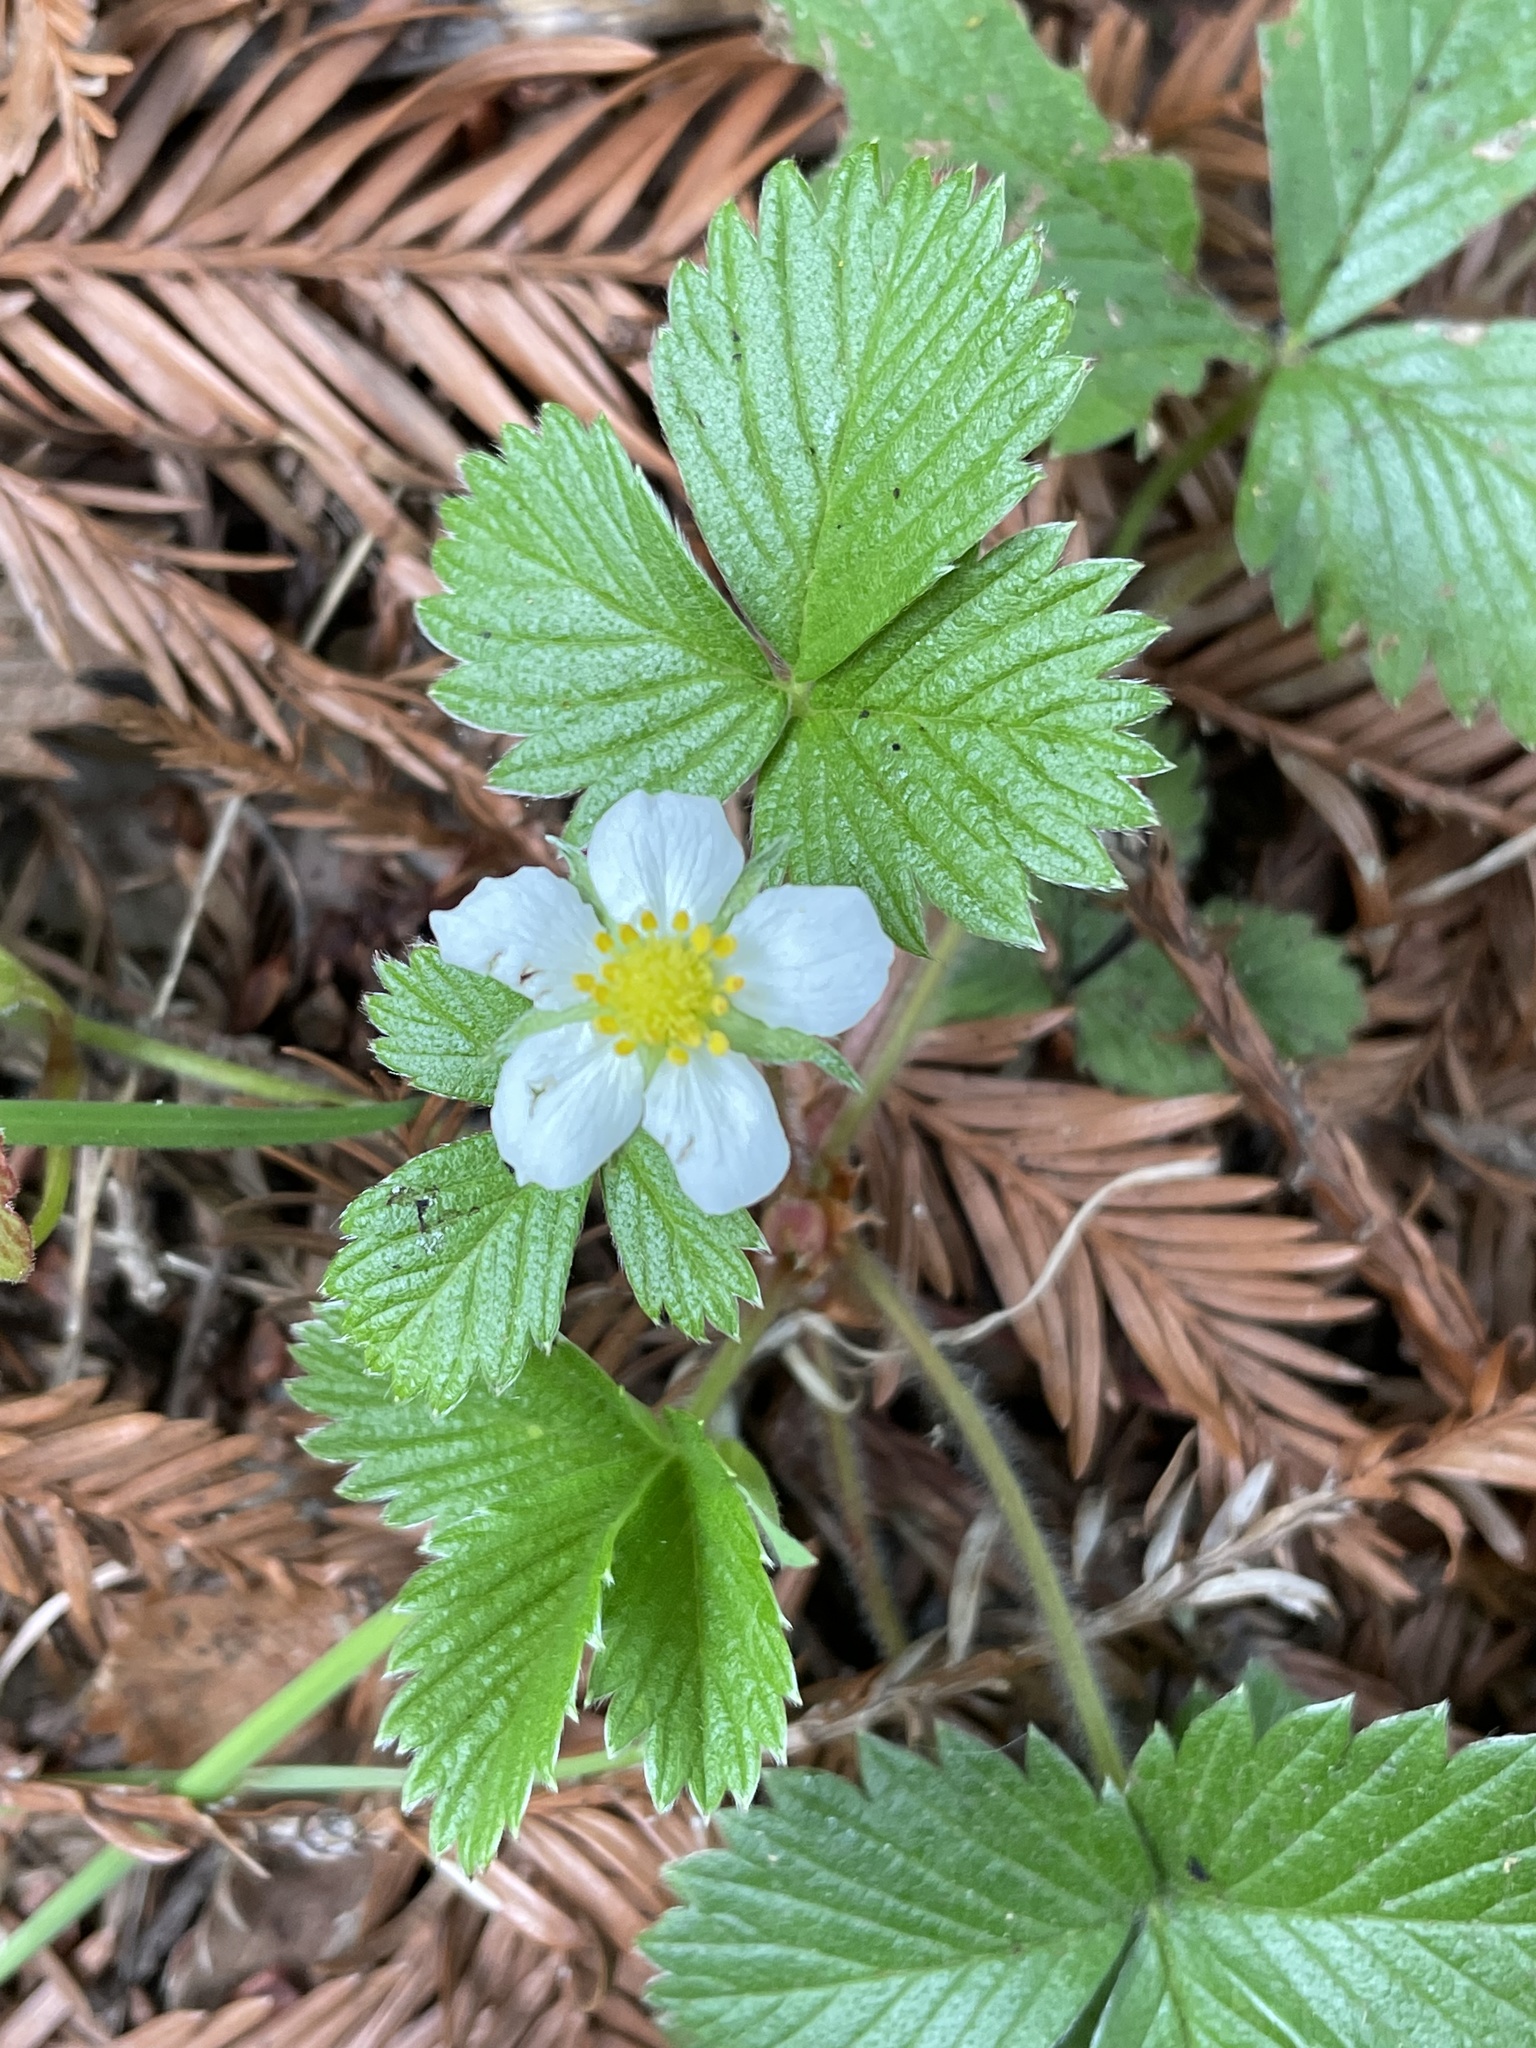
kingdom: Plantae
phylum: Tracheophyta
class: Magnoliopsida
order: Rosales
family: Rosaceae
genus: Fragaria
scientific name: Fragaria vesca
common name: Wild strawberry
